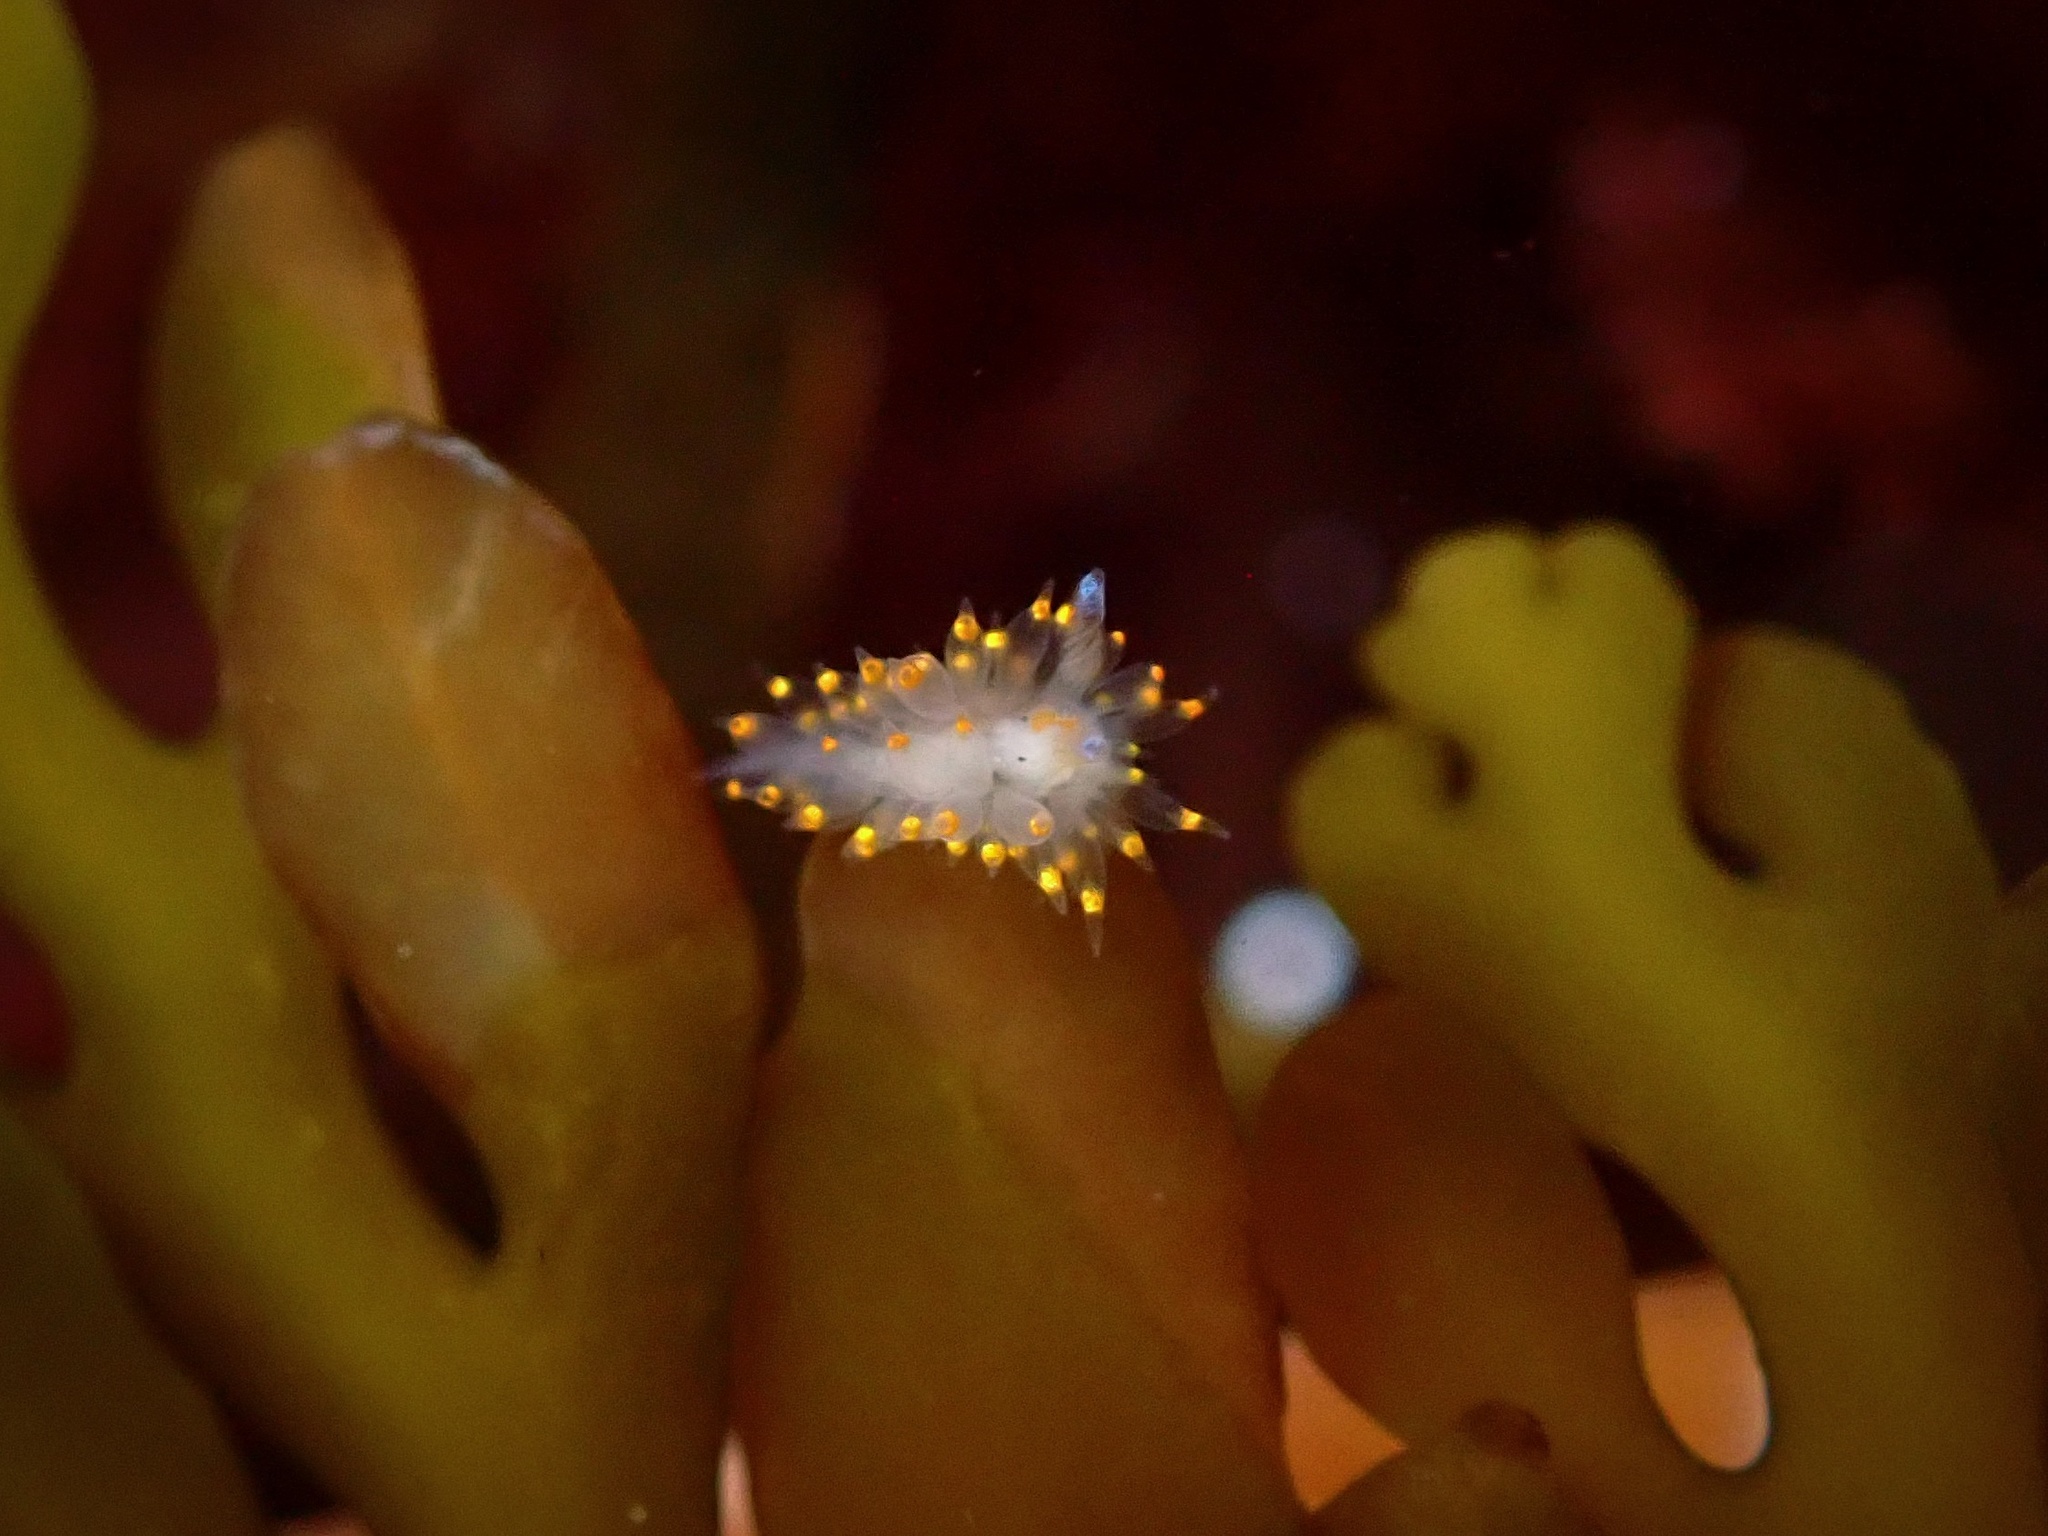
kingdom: Animalia
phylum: Mollusca
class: Gastropoda
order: Nudibranchia
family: Janolidae
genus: Antiopella
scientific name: Antiopella barbarensis
